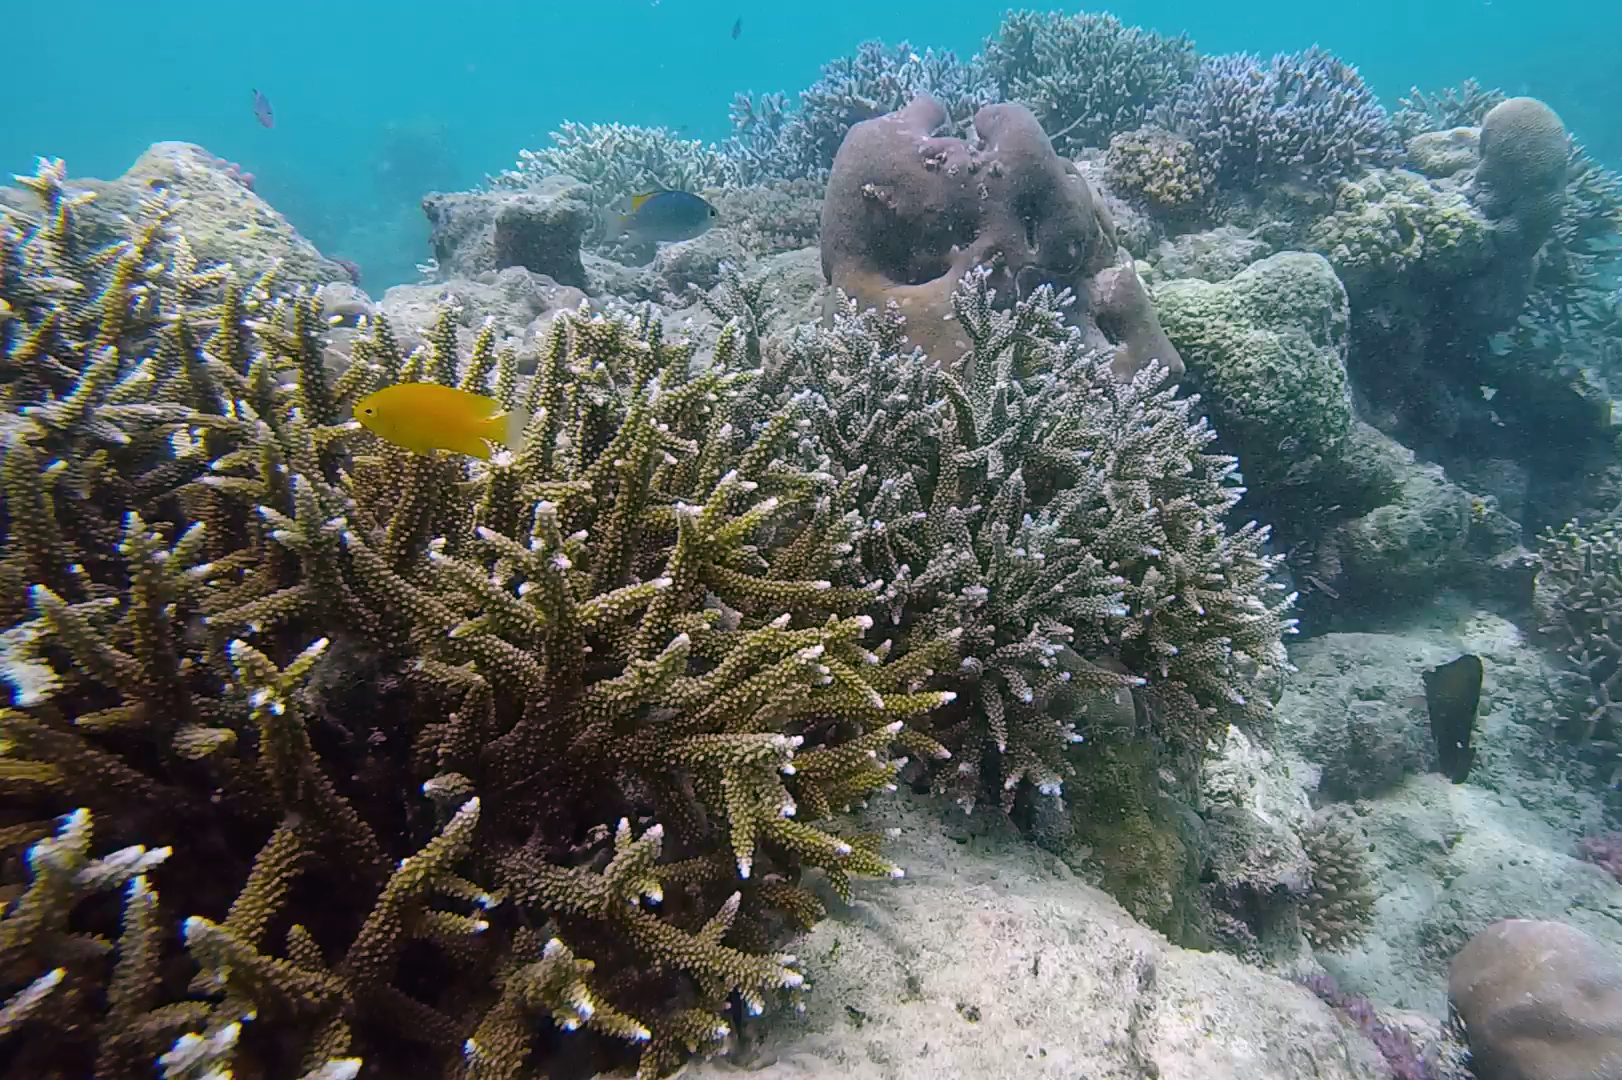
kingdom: Animalia
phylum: Chordata
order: Perciformes
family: Pomacentridae
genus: Pomacentrus
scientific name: Pomacentrus moluccensis
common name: Lemon damsel
